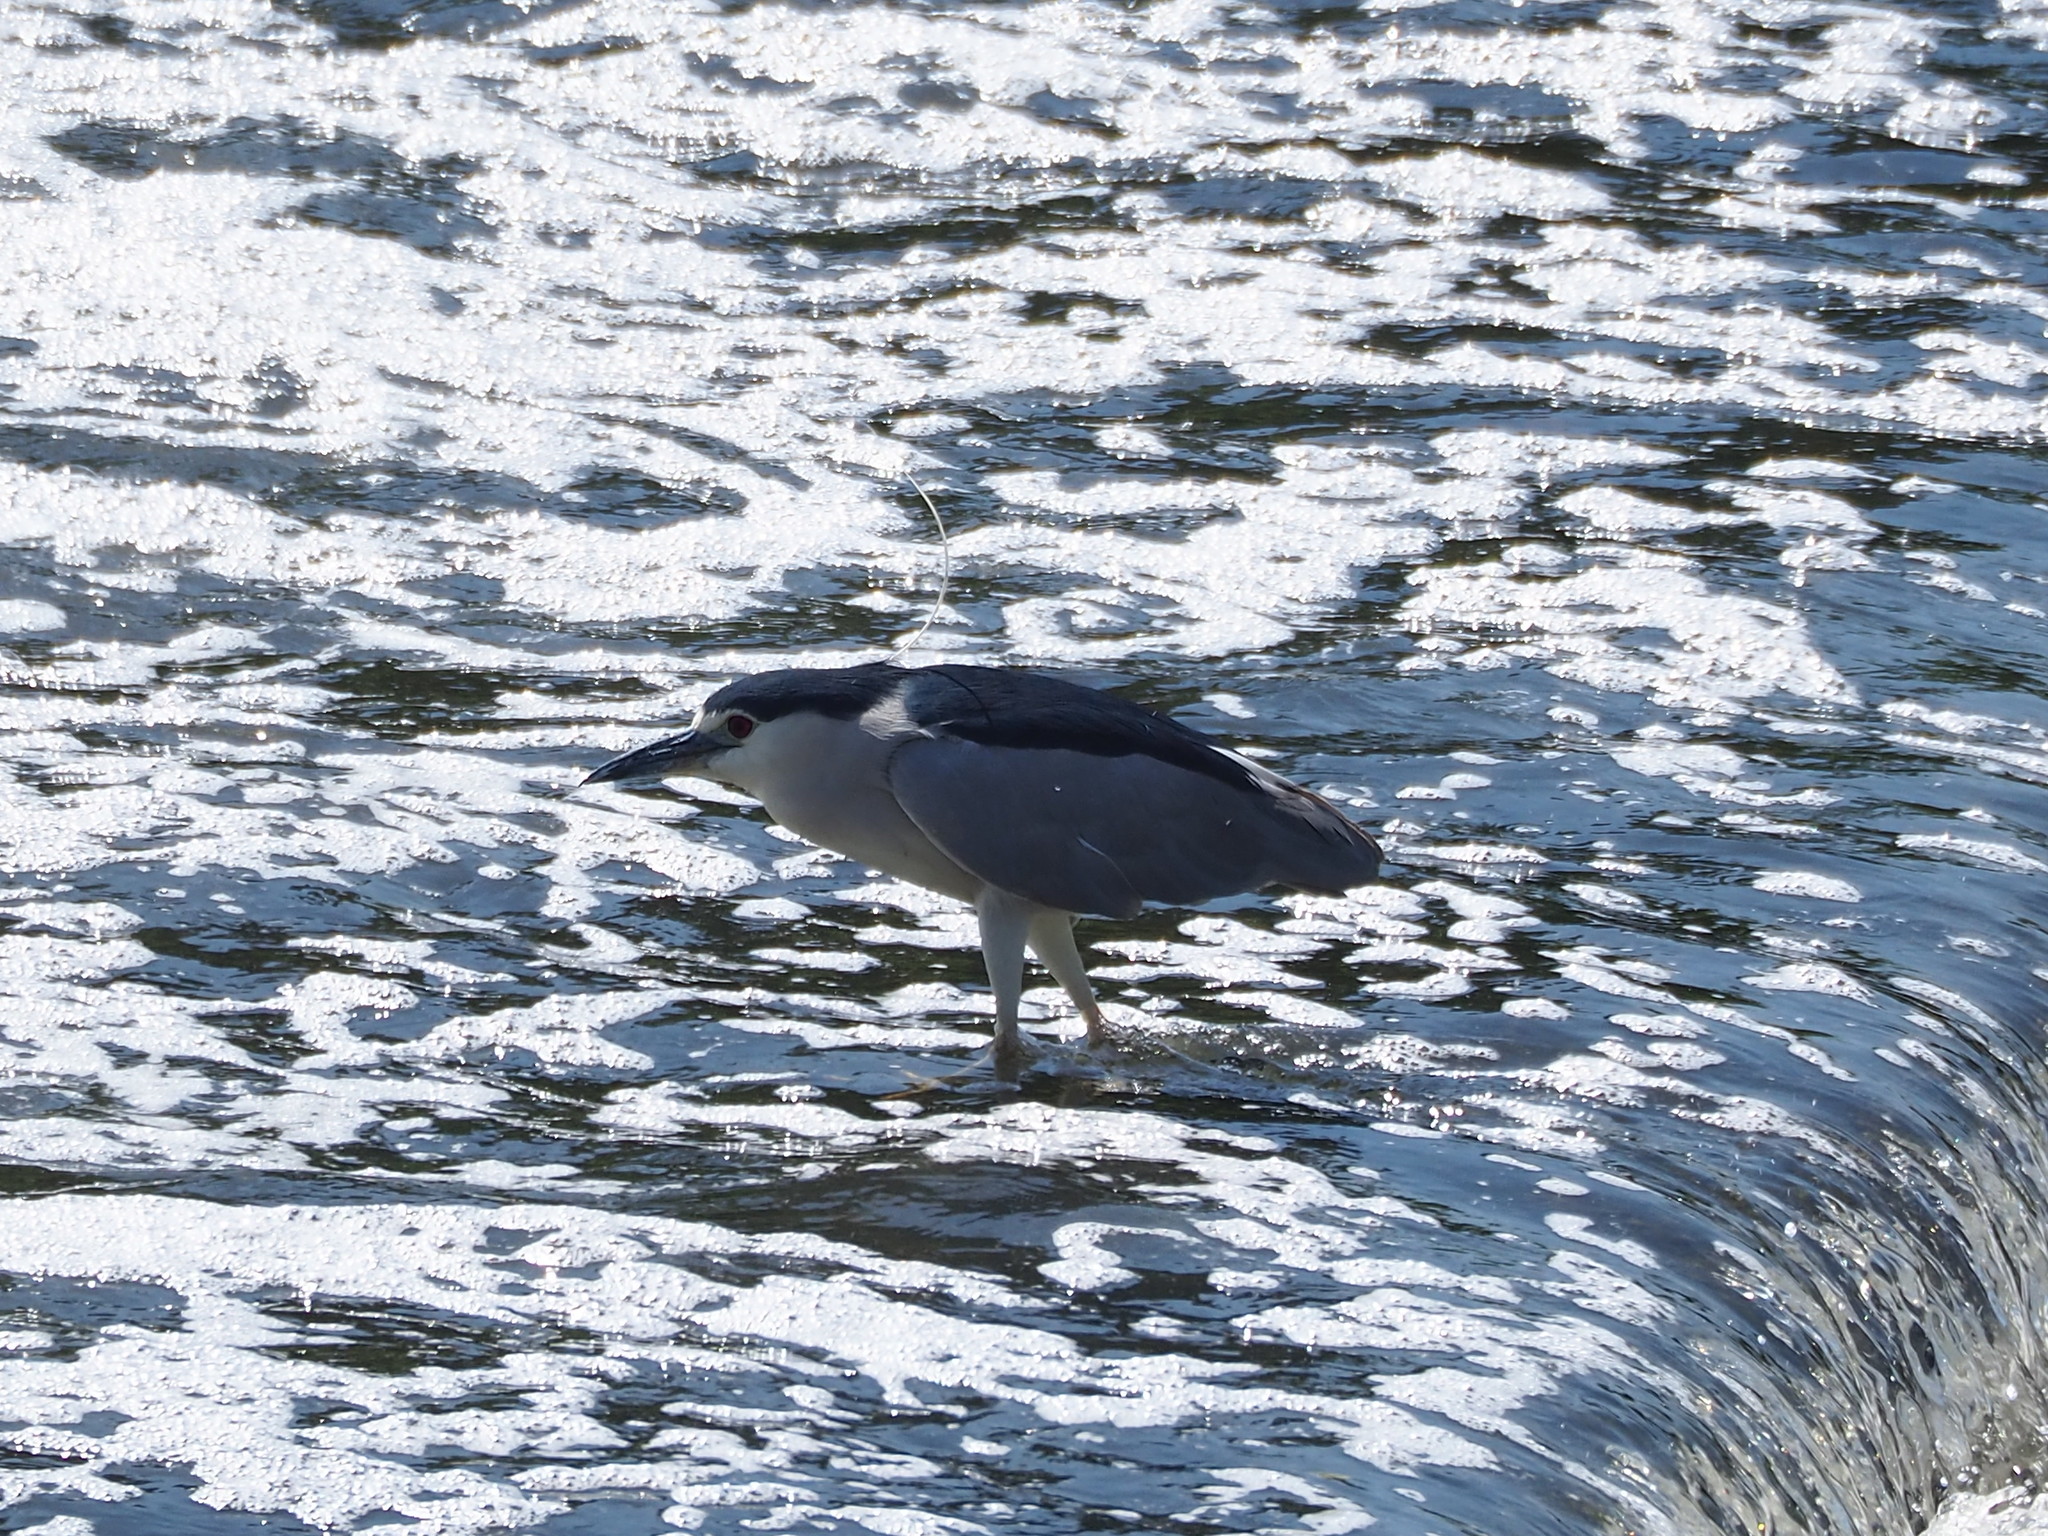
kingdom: Animalia
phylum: Chordata
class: Aves
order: Pelecaniformes
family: Ardeidae
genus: Nycticorax
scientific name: Nycticorax nycticorax
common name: Black-crowned night heron
